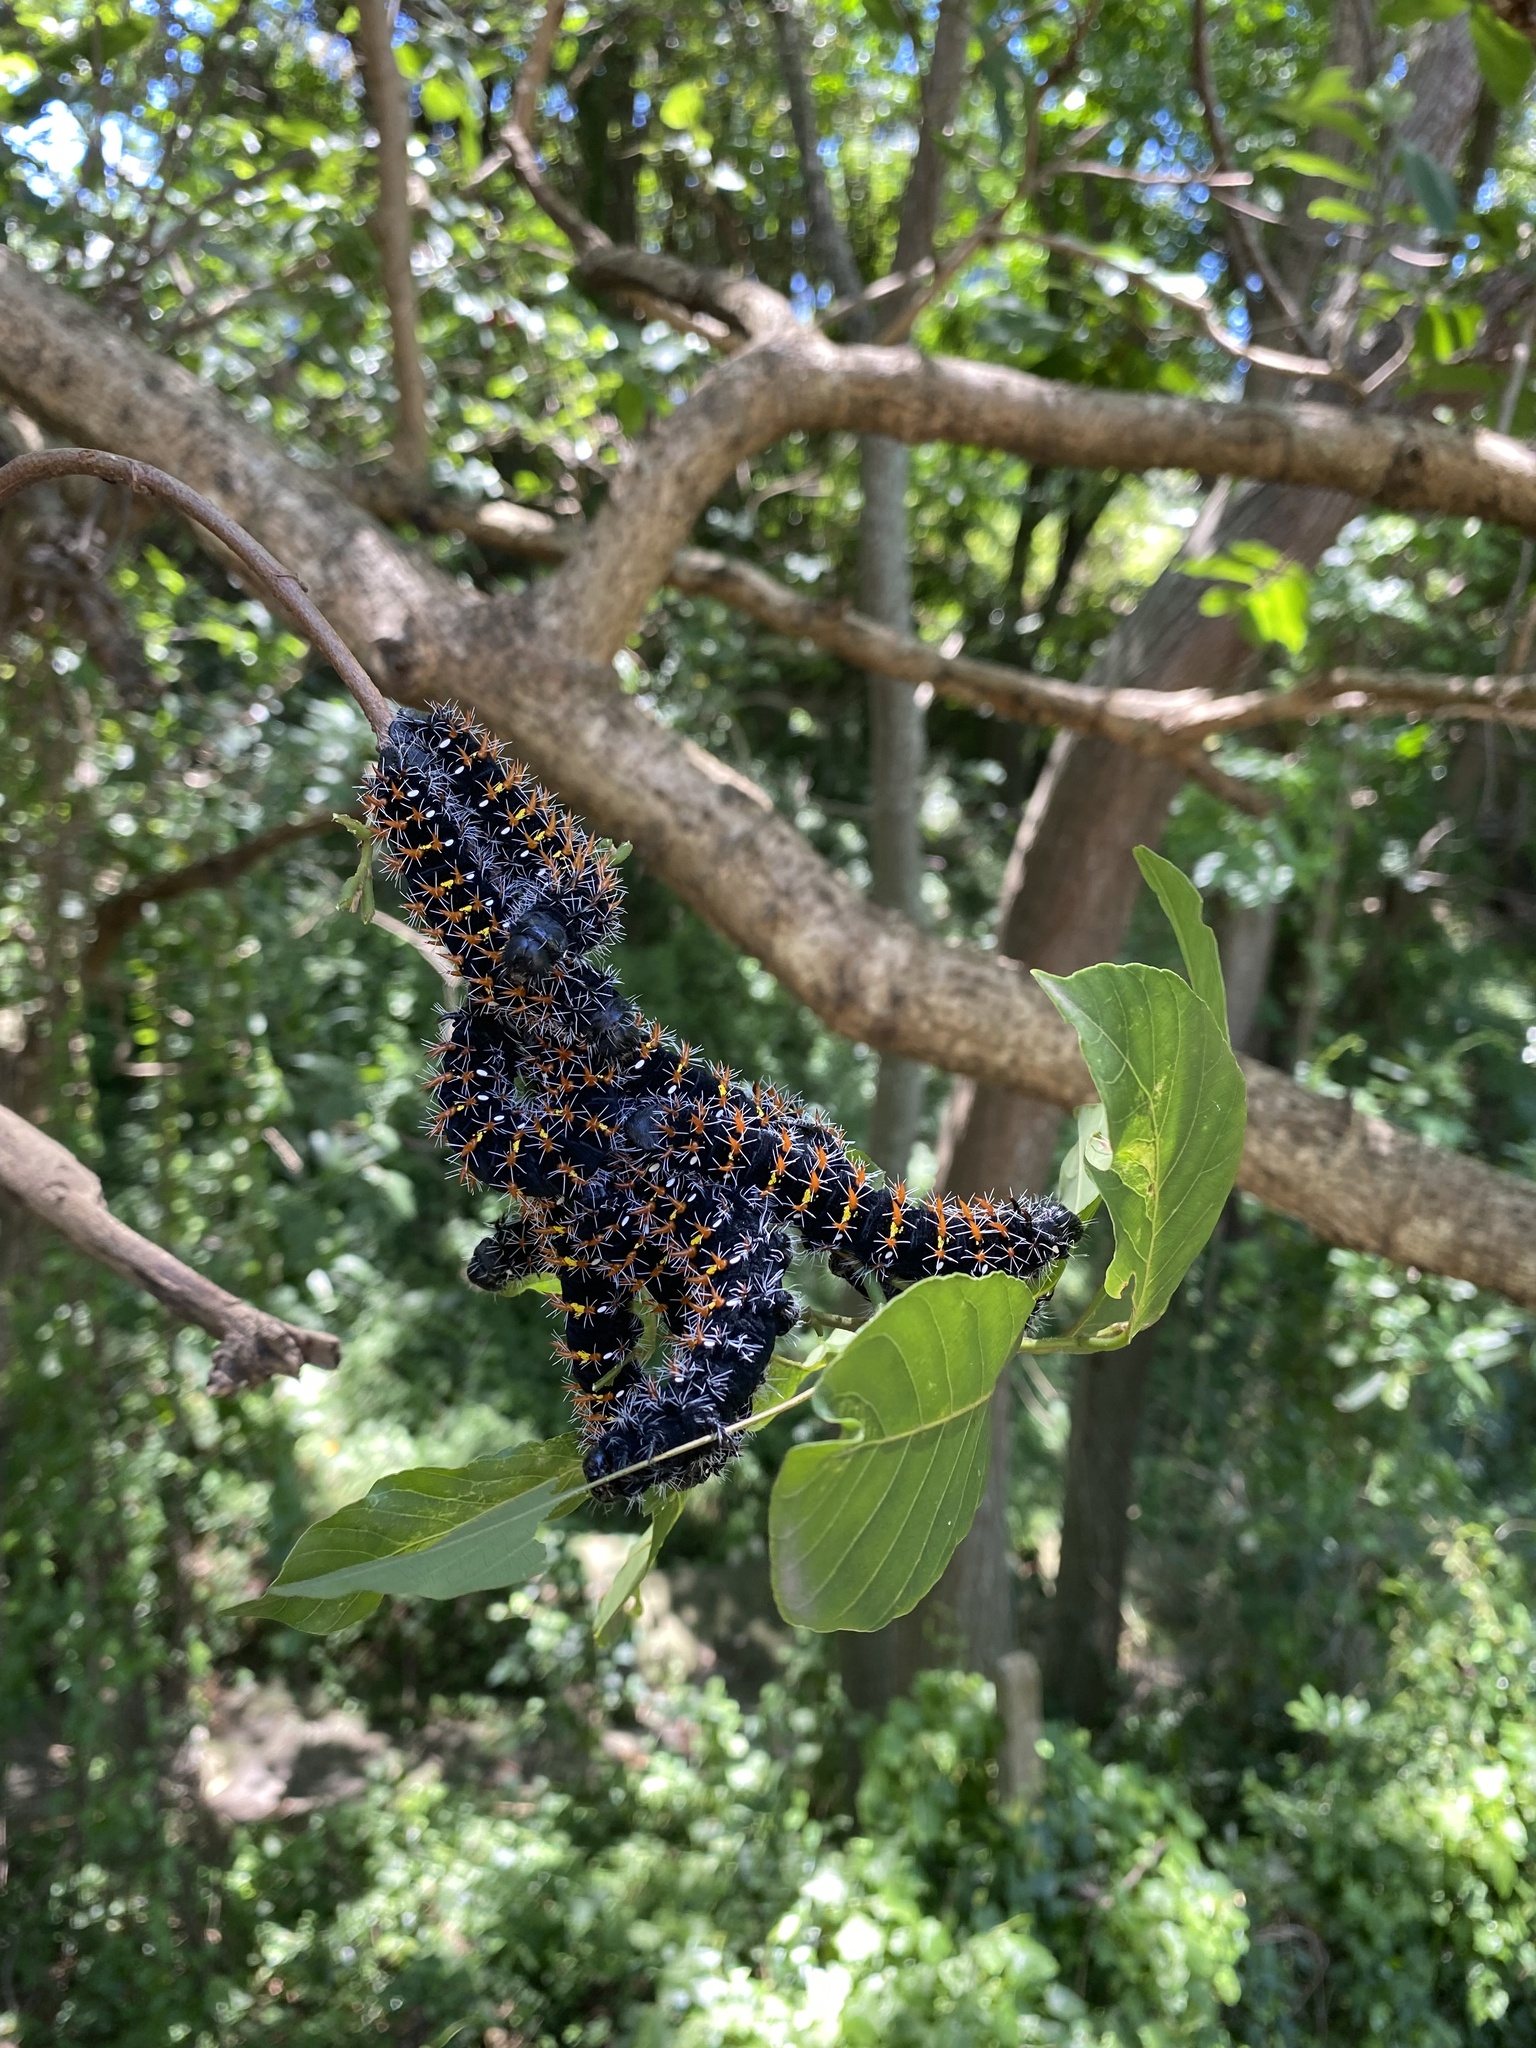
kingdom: Animalia
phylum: Arthropoda
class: Insecta
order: Lepidoptera
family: Saturniidae
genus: Nudaurelia
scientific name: Nudaurelia wahlbergi
